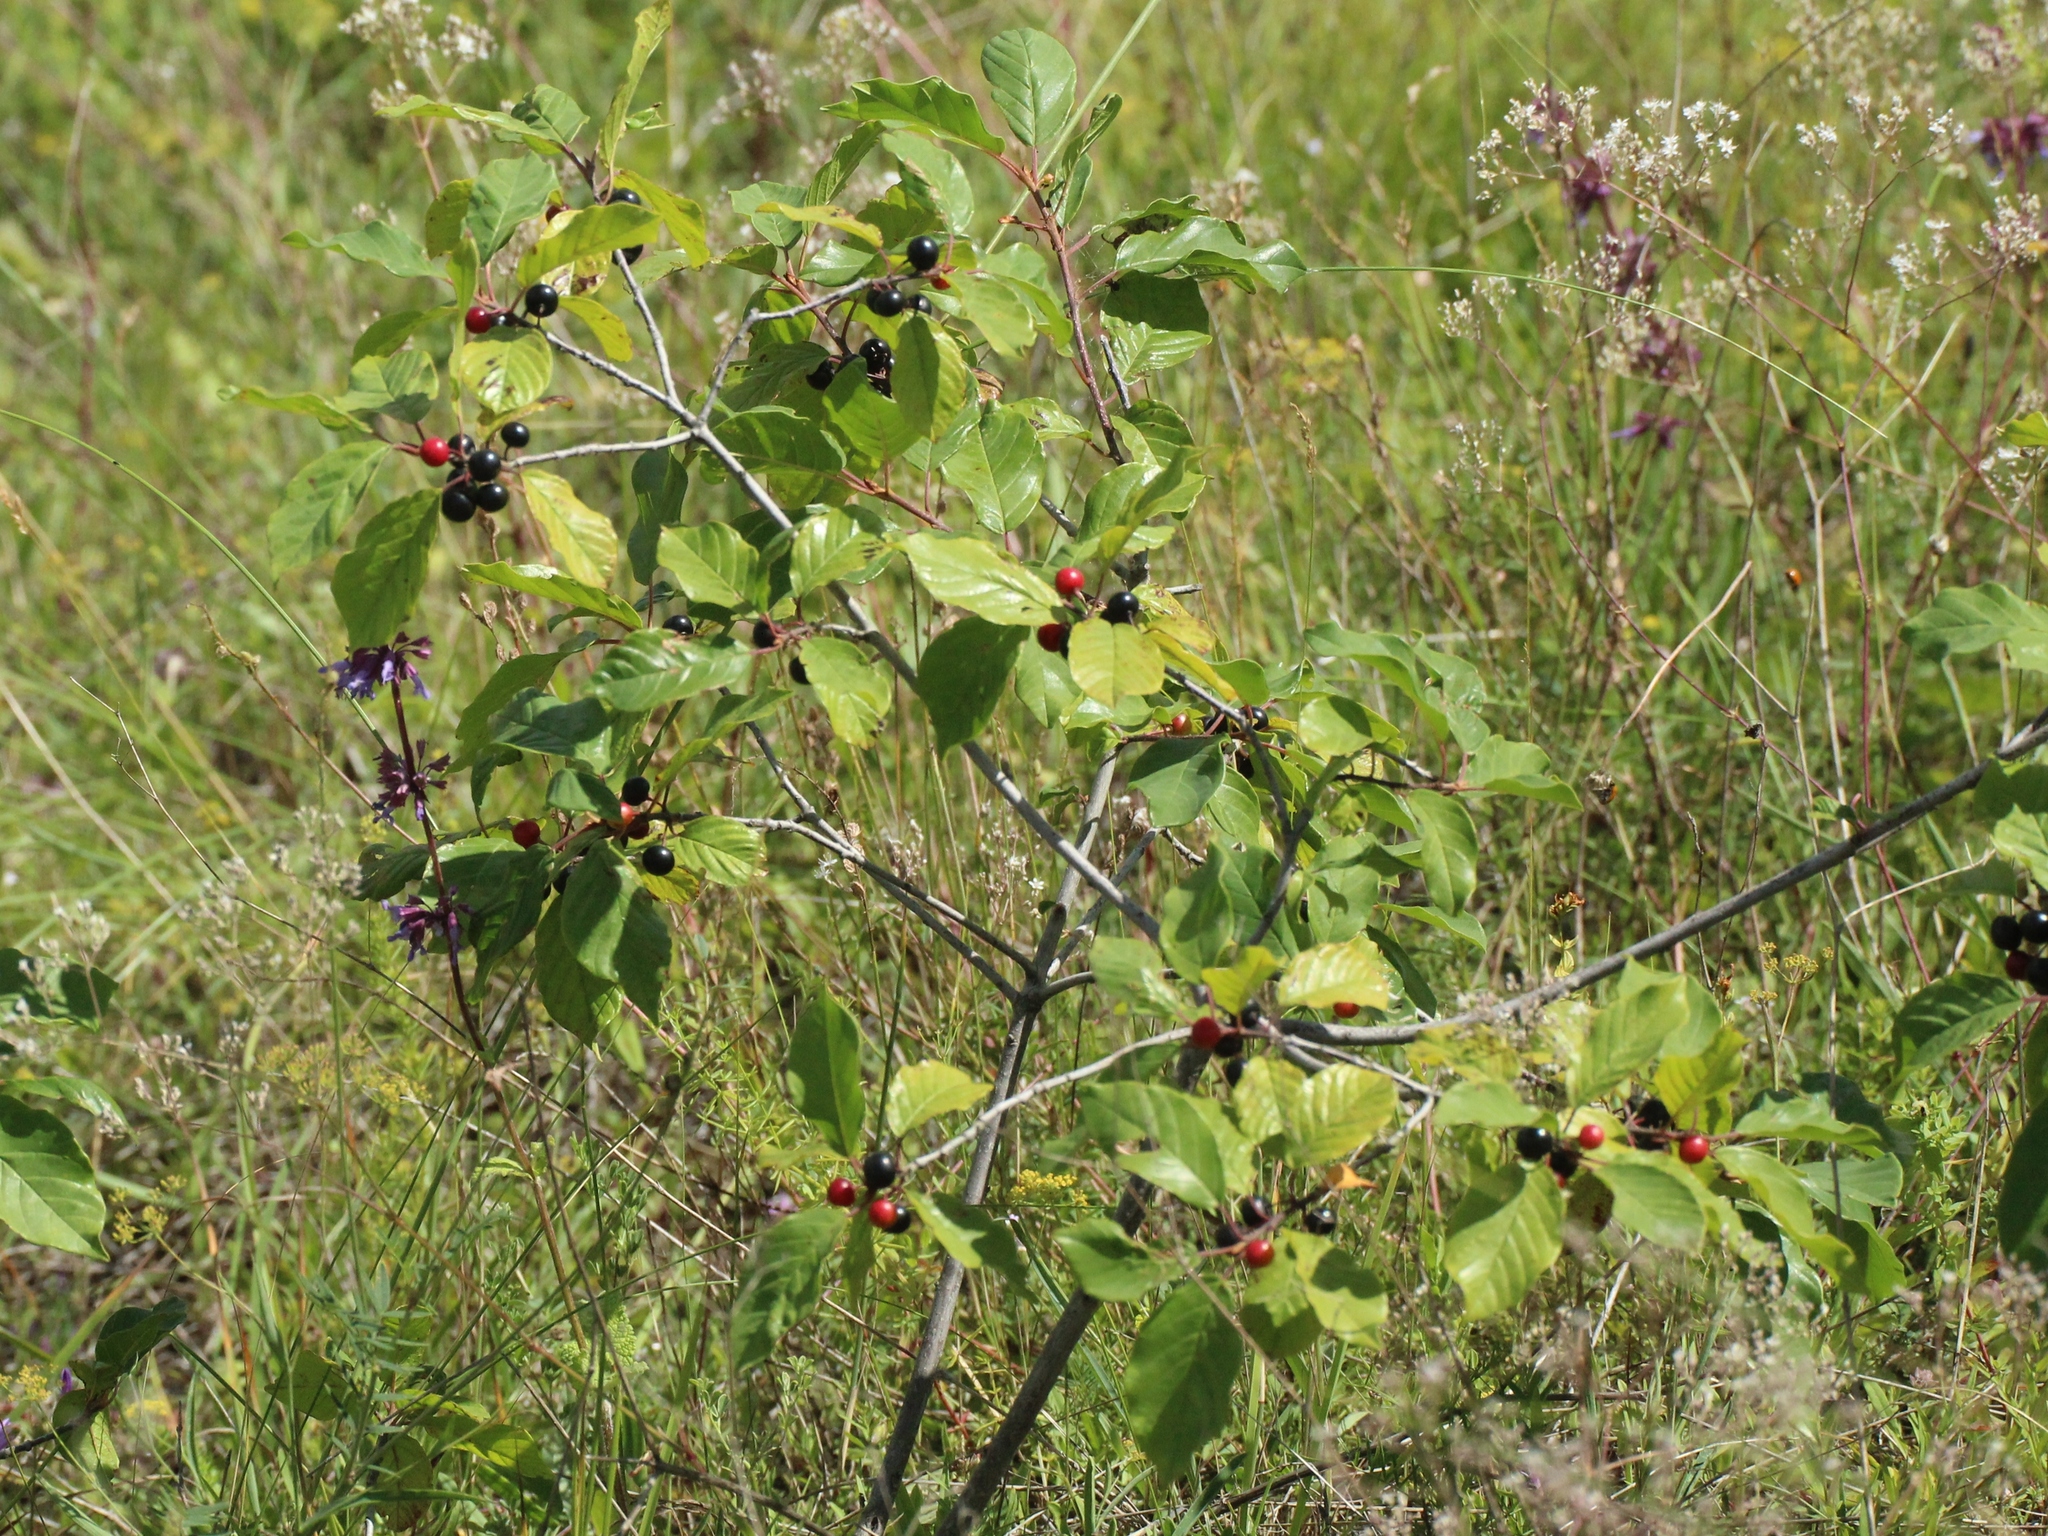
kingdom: Plantae
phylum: Tracheophyta
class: Magnoliopsida
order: Rosales
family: Rhamnaceae
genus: Frangula
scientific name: Frangula alnus
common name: Alder buckthorn
